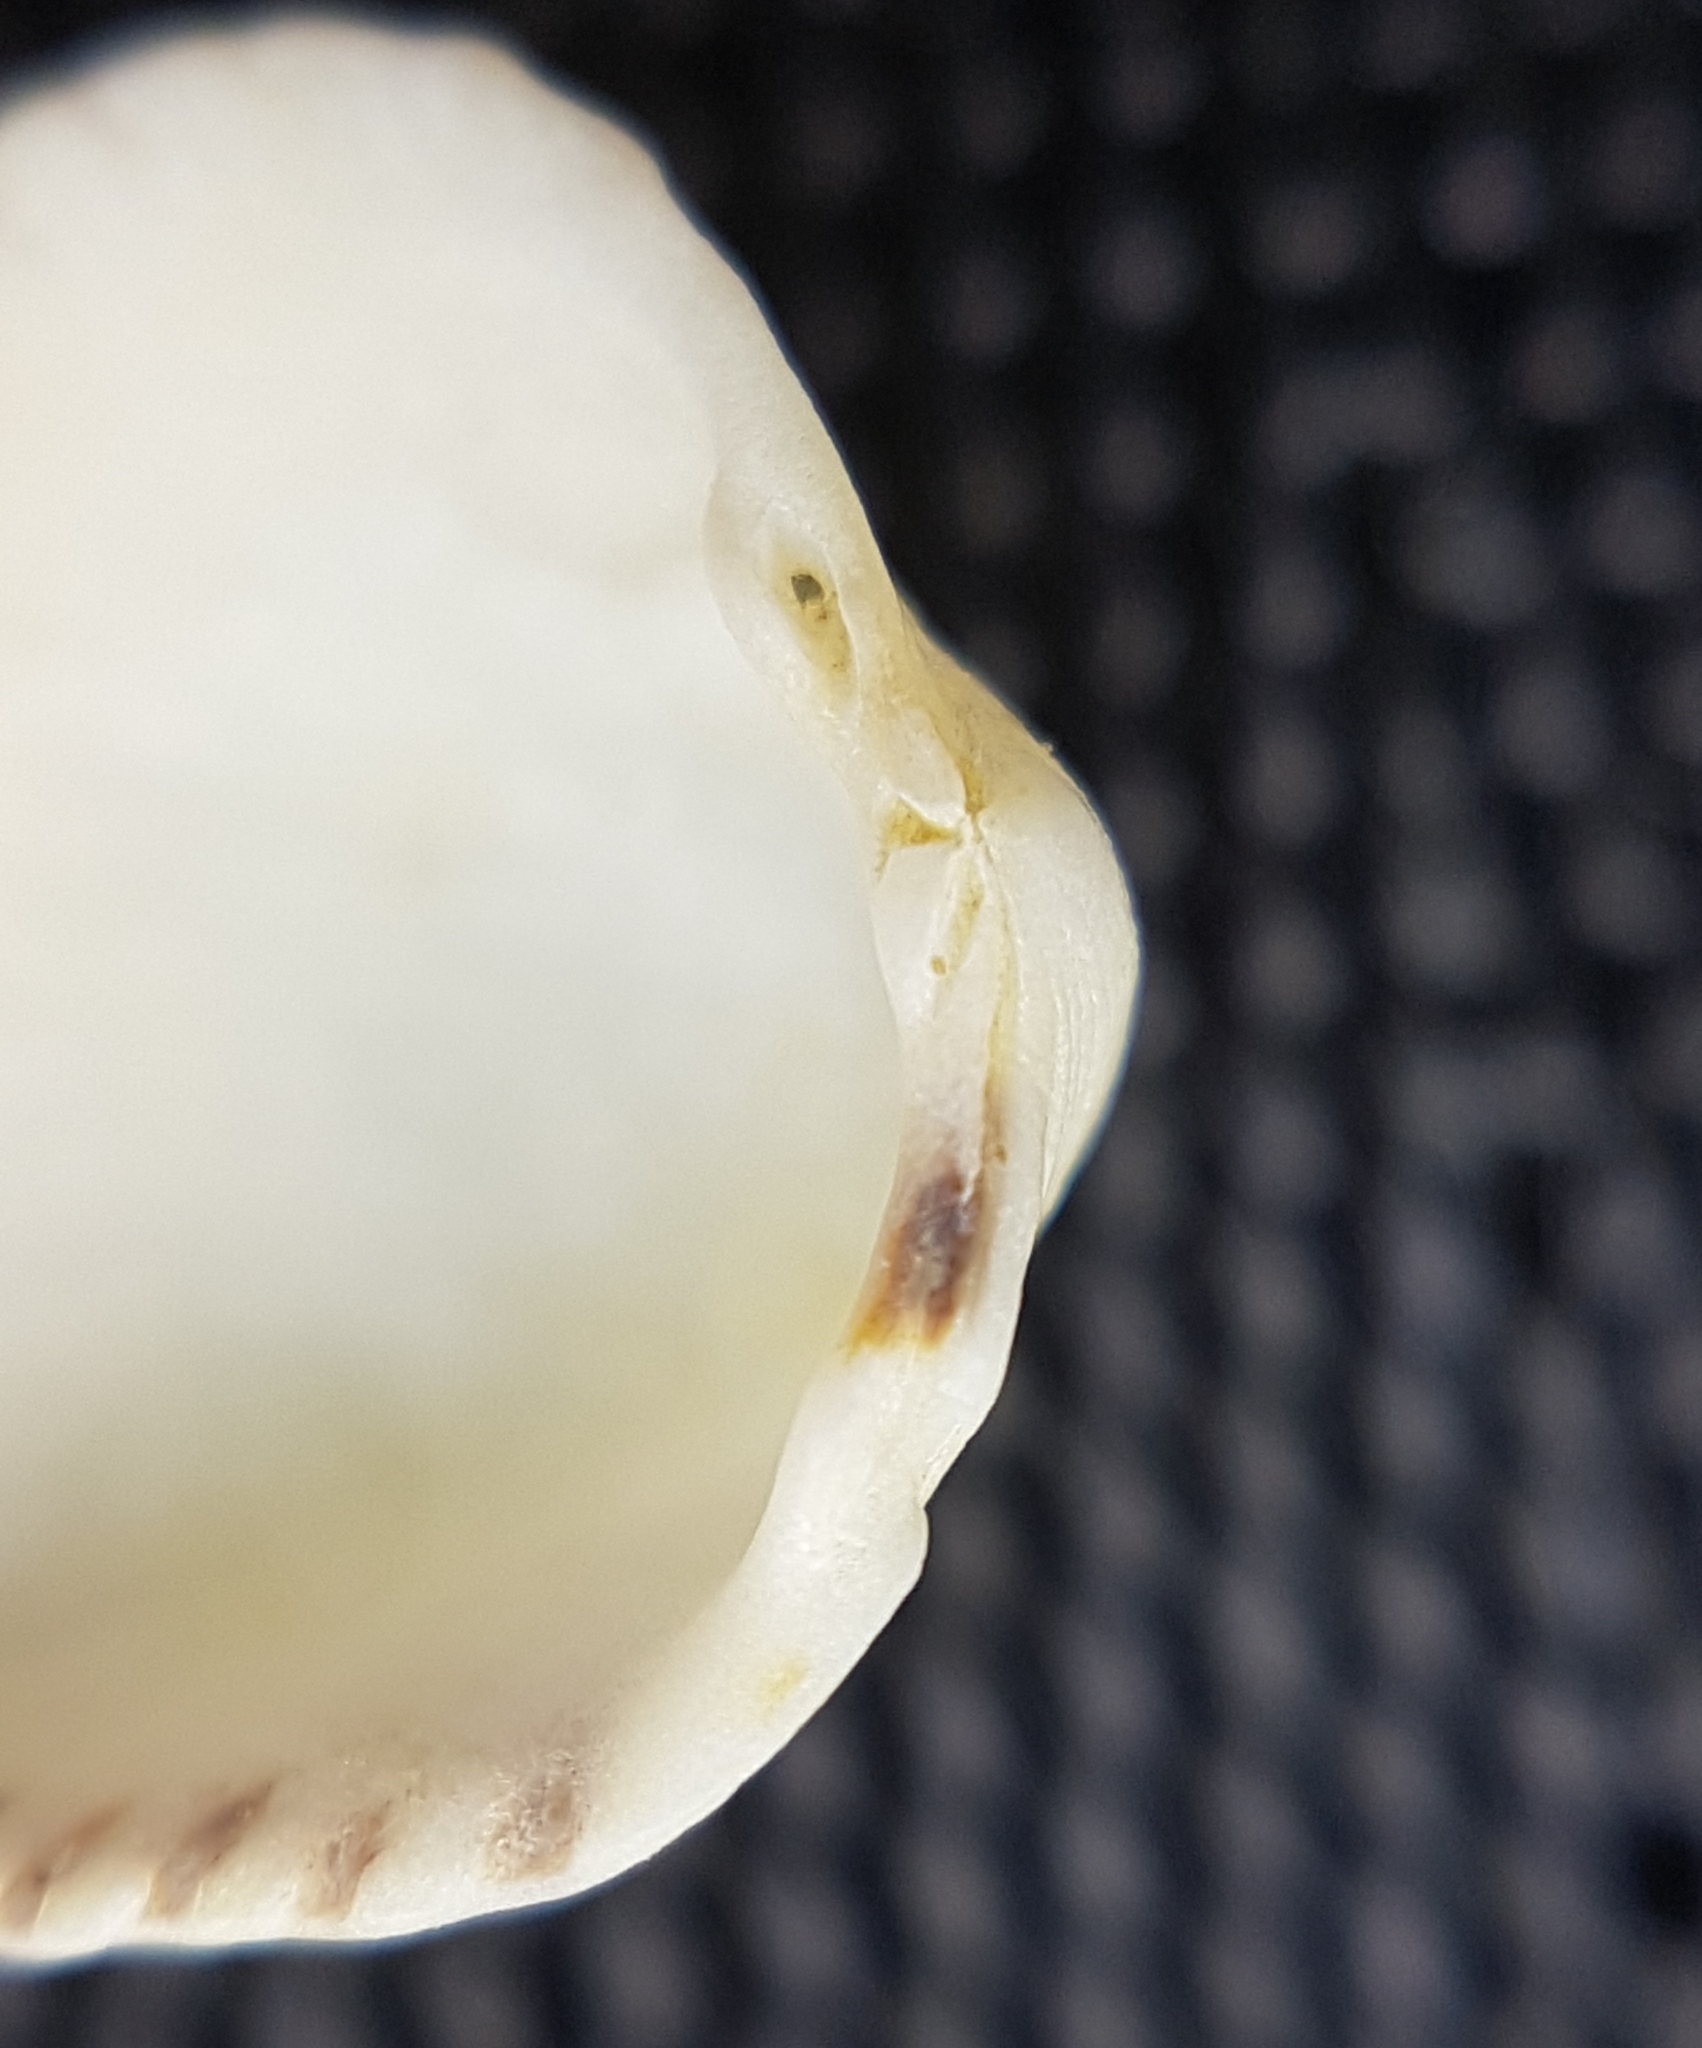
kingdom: Animalia
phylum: Mollusca
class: Bivalvia
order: Cardiida
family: Cardiidae
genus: Parvicardium
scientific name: Parvicardium exiguum
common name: Little cockle
